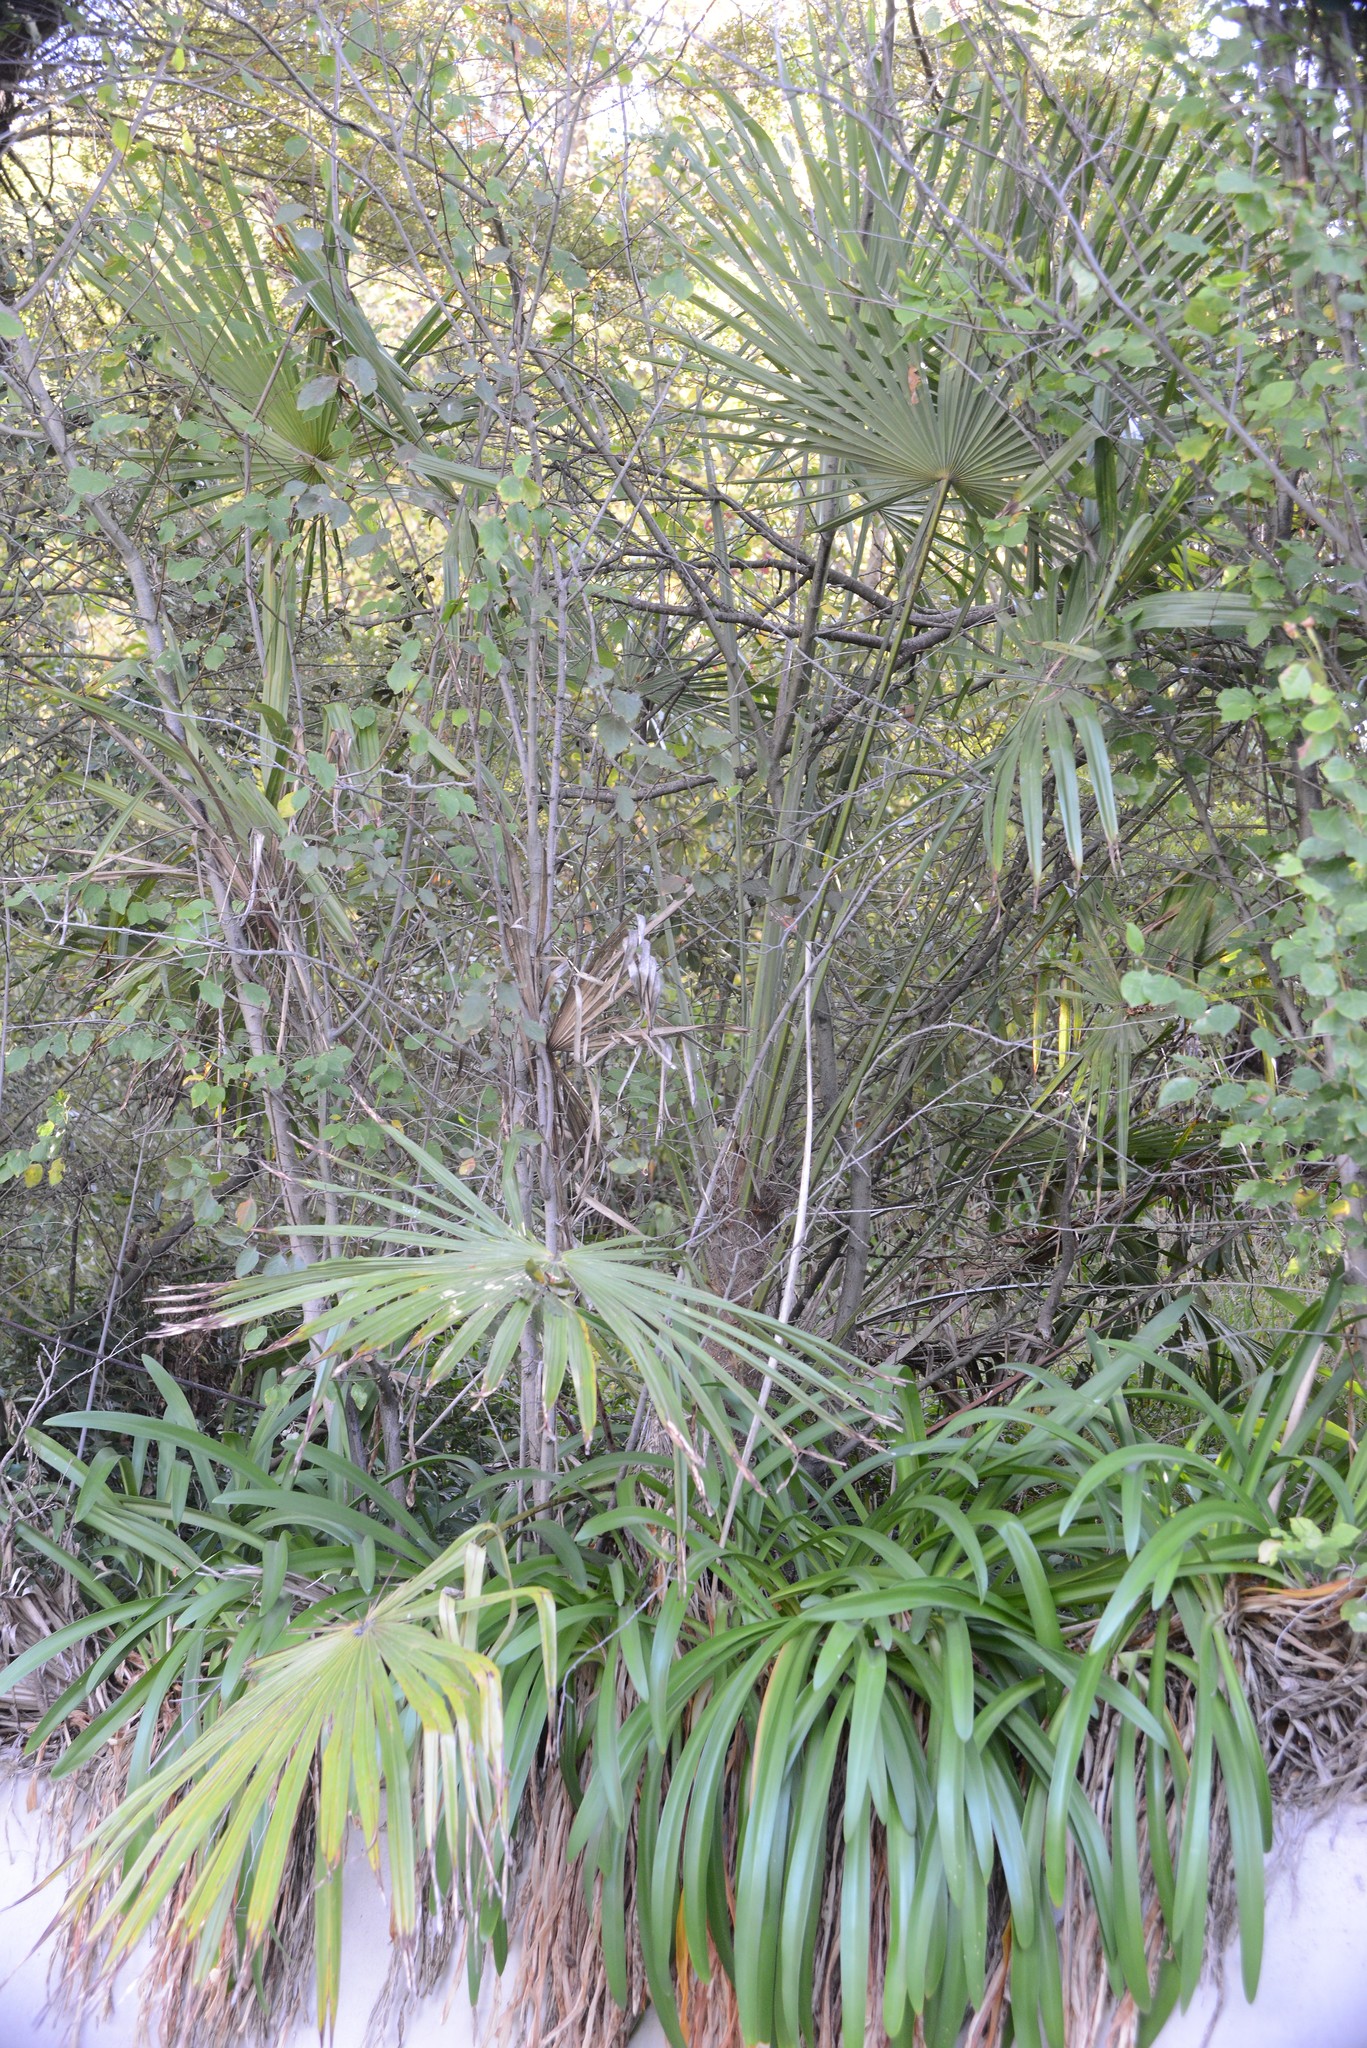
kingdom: Plantae
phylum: Tracheophyta
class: Liliopsida
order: Arecales
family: Arecaceae
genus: Trachycarpus
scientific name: Trachycarpus fortunei
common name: Chusan palm
